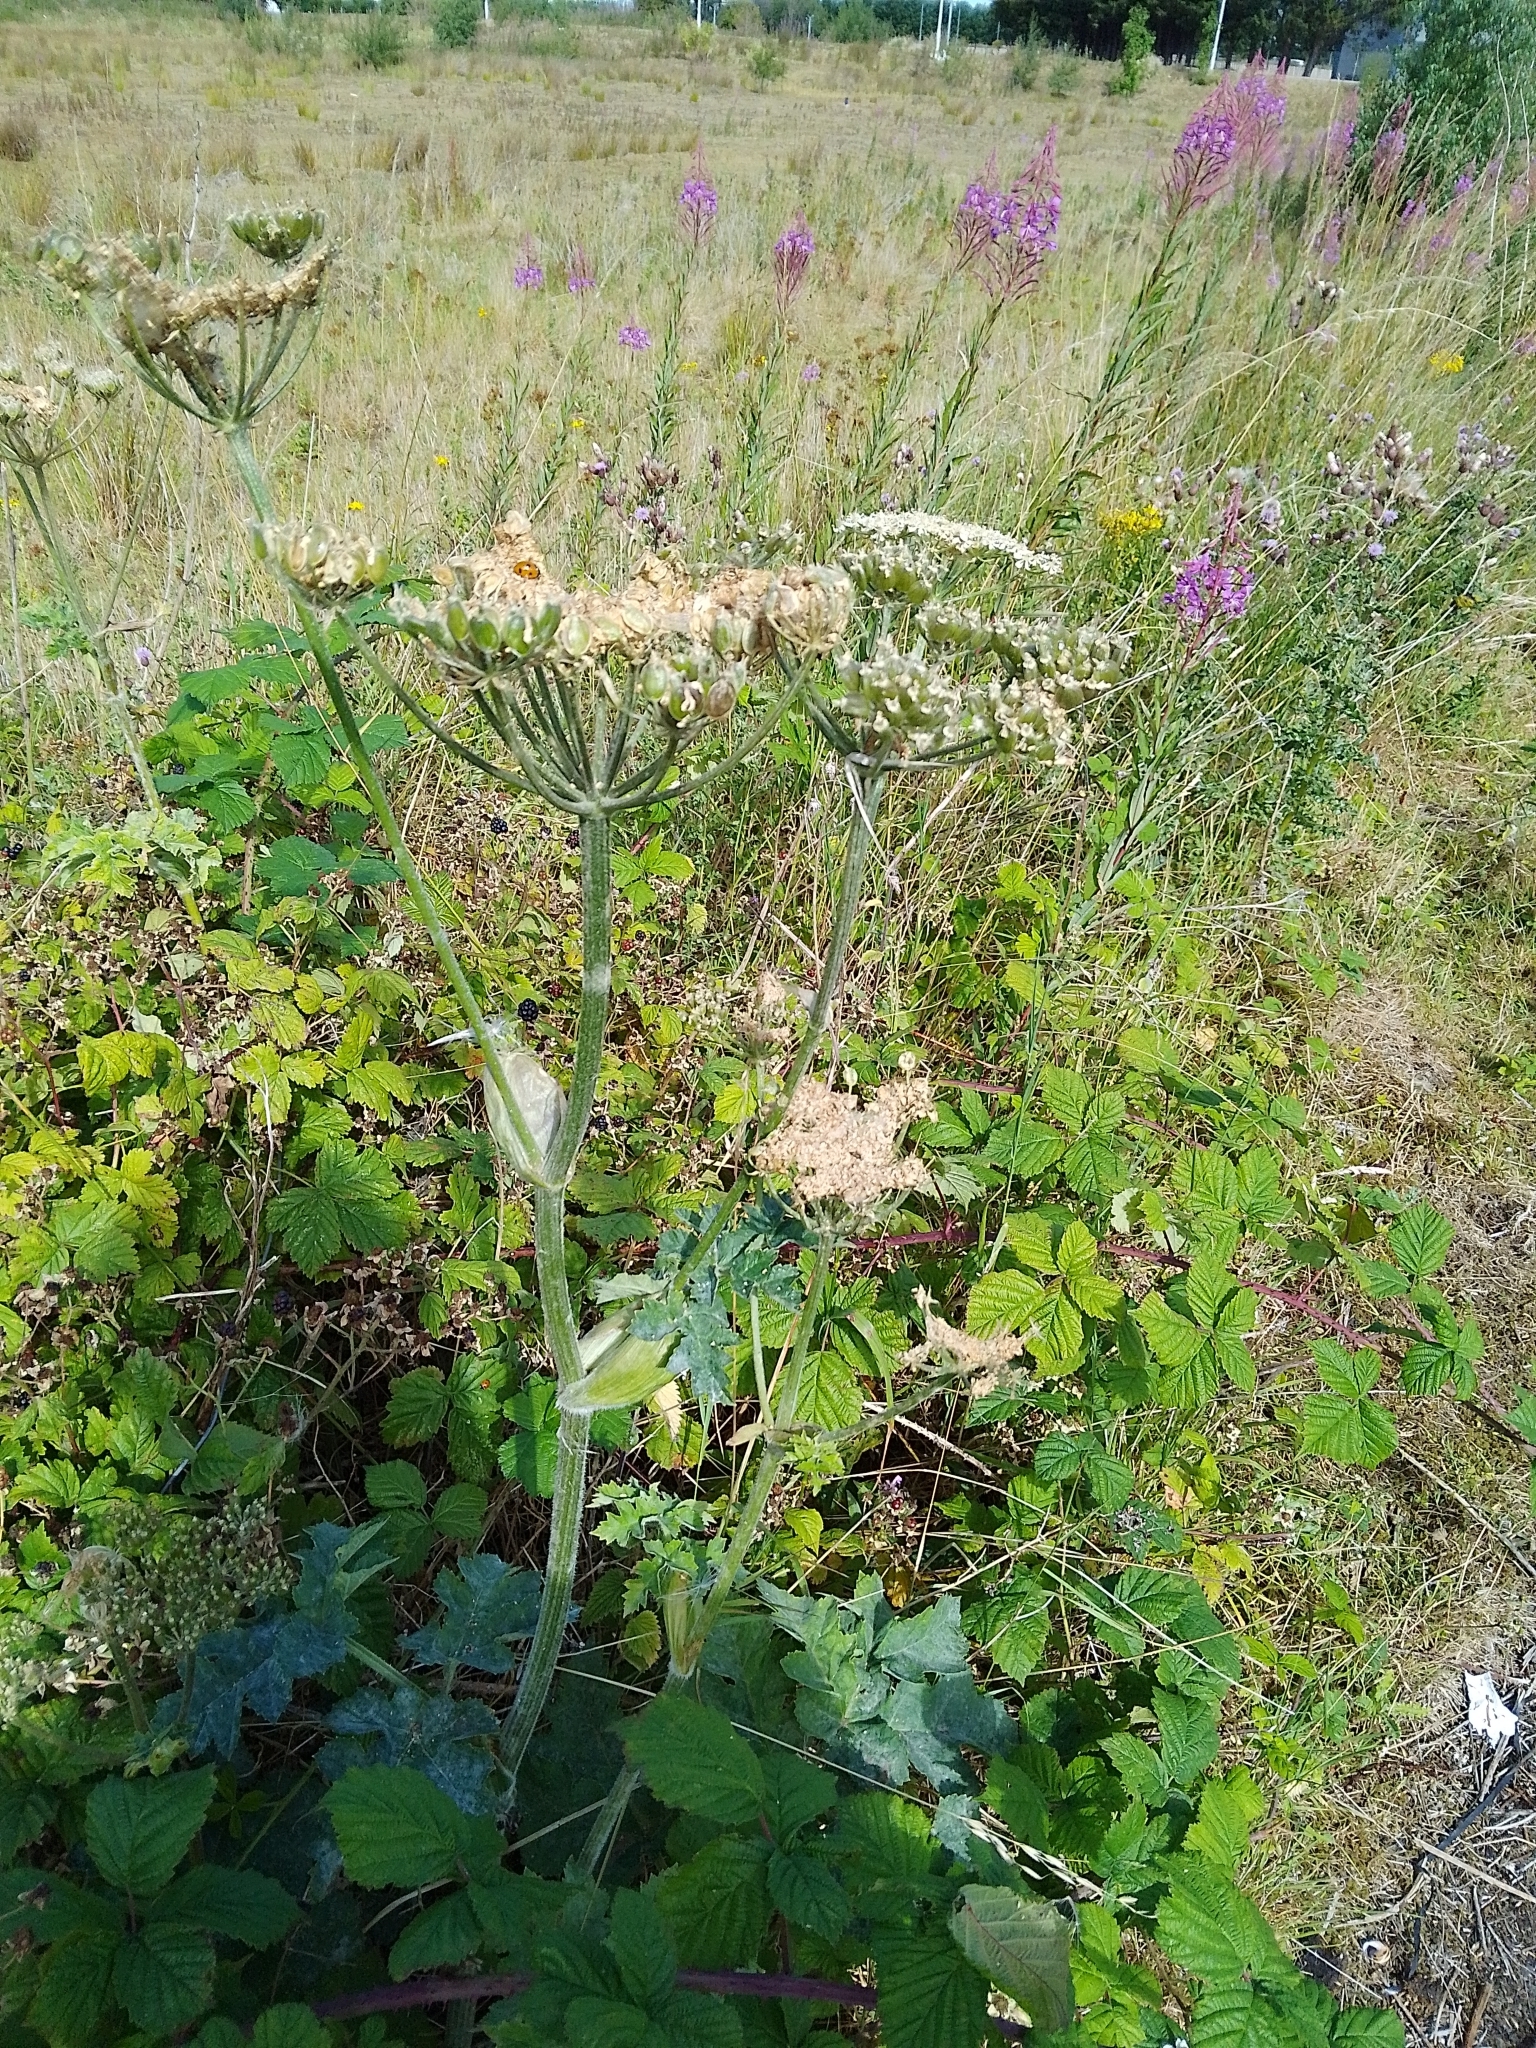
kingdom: Plantae
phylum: Tracheophyta
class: Magnoliopsida
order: Apiales
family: Apiaceae
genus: Heracleum
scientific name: Heracleum sphondylium
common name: Hogweed
